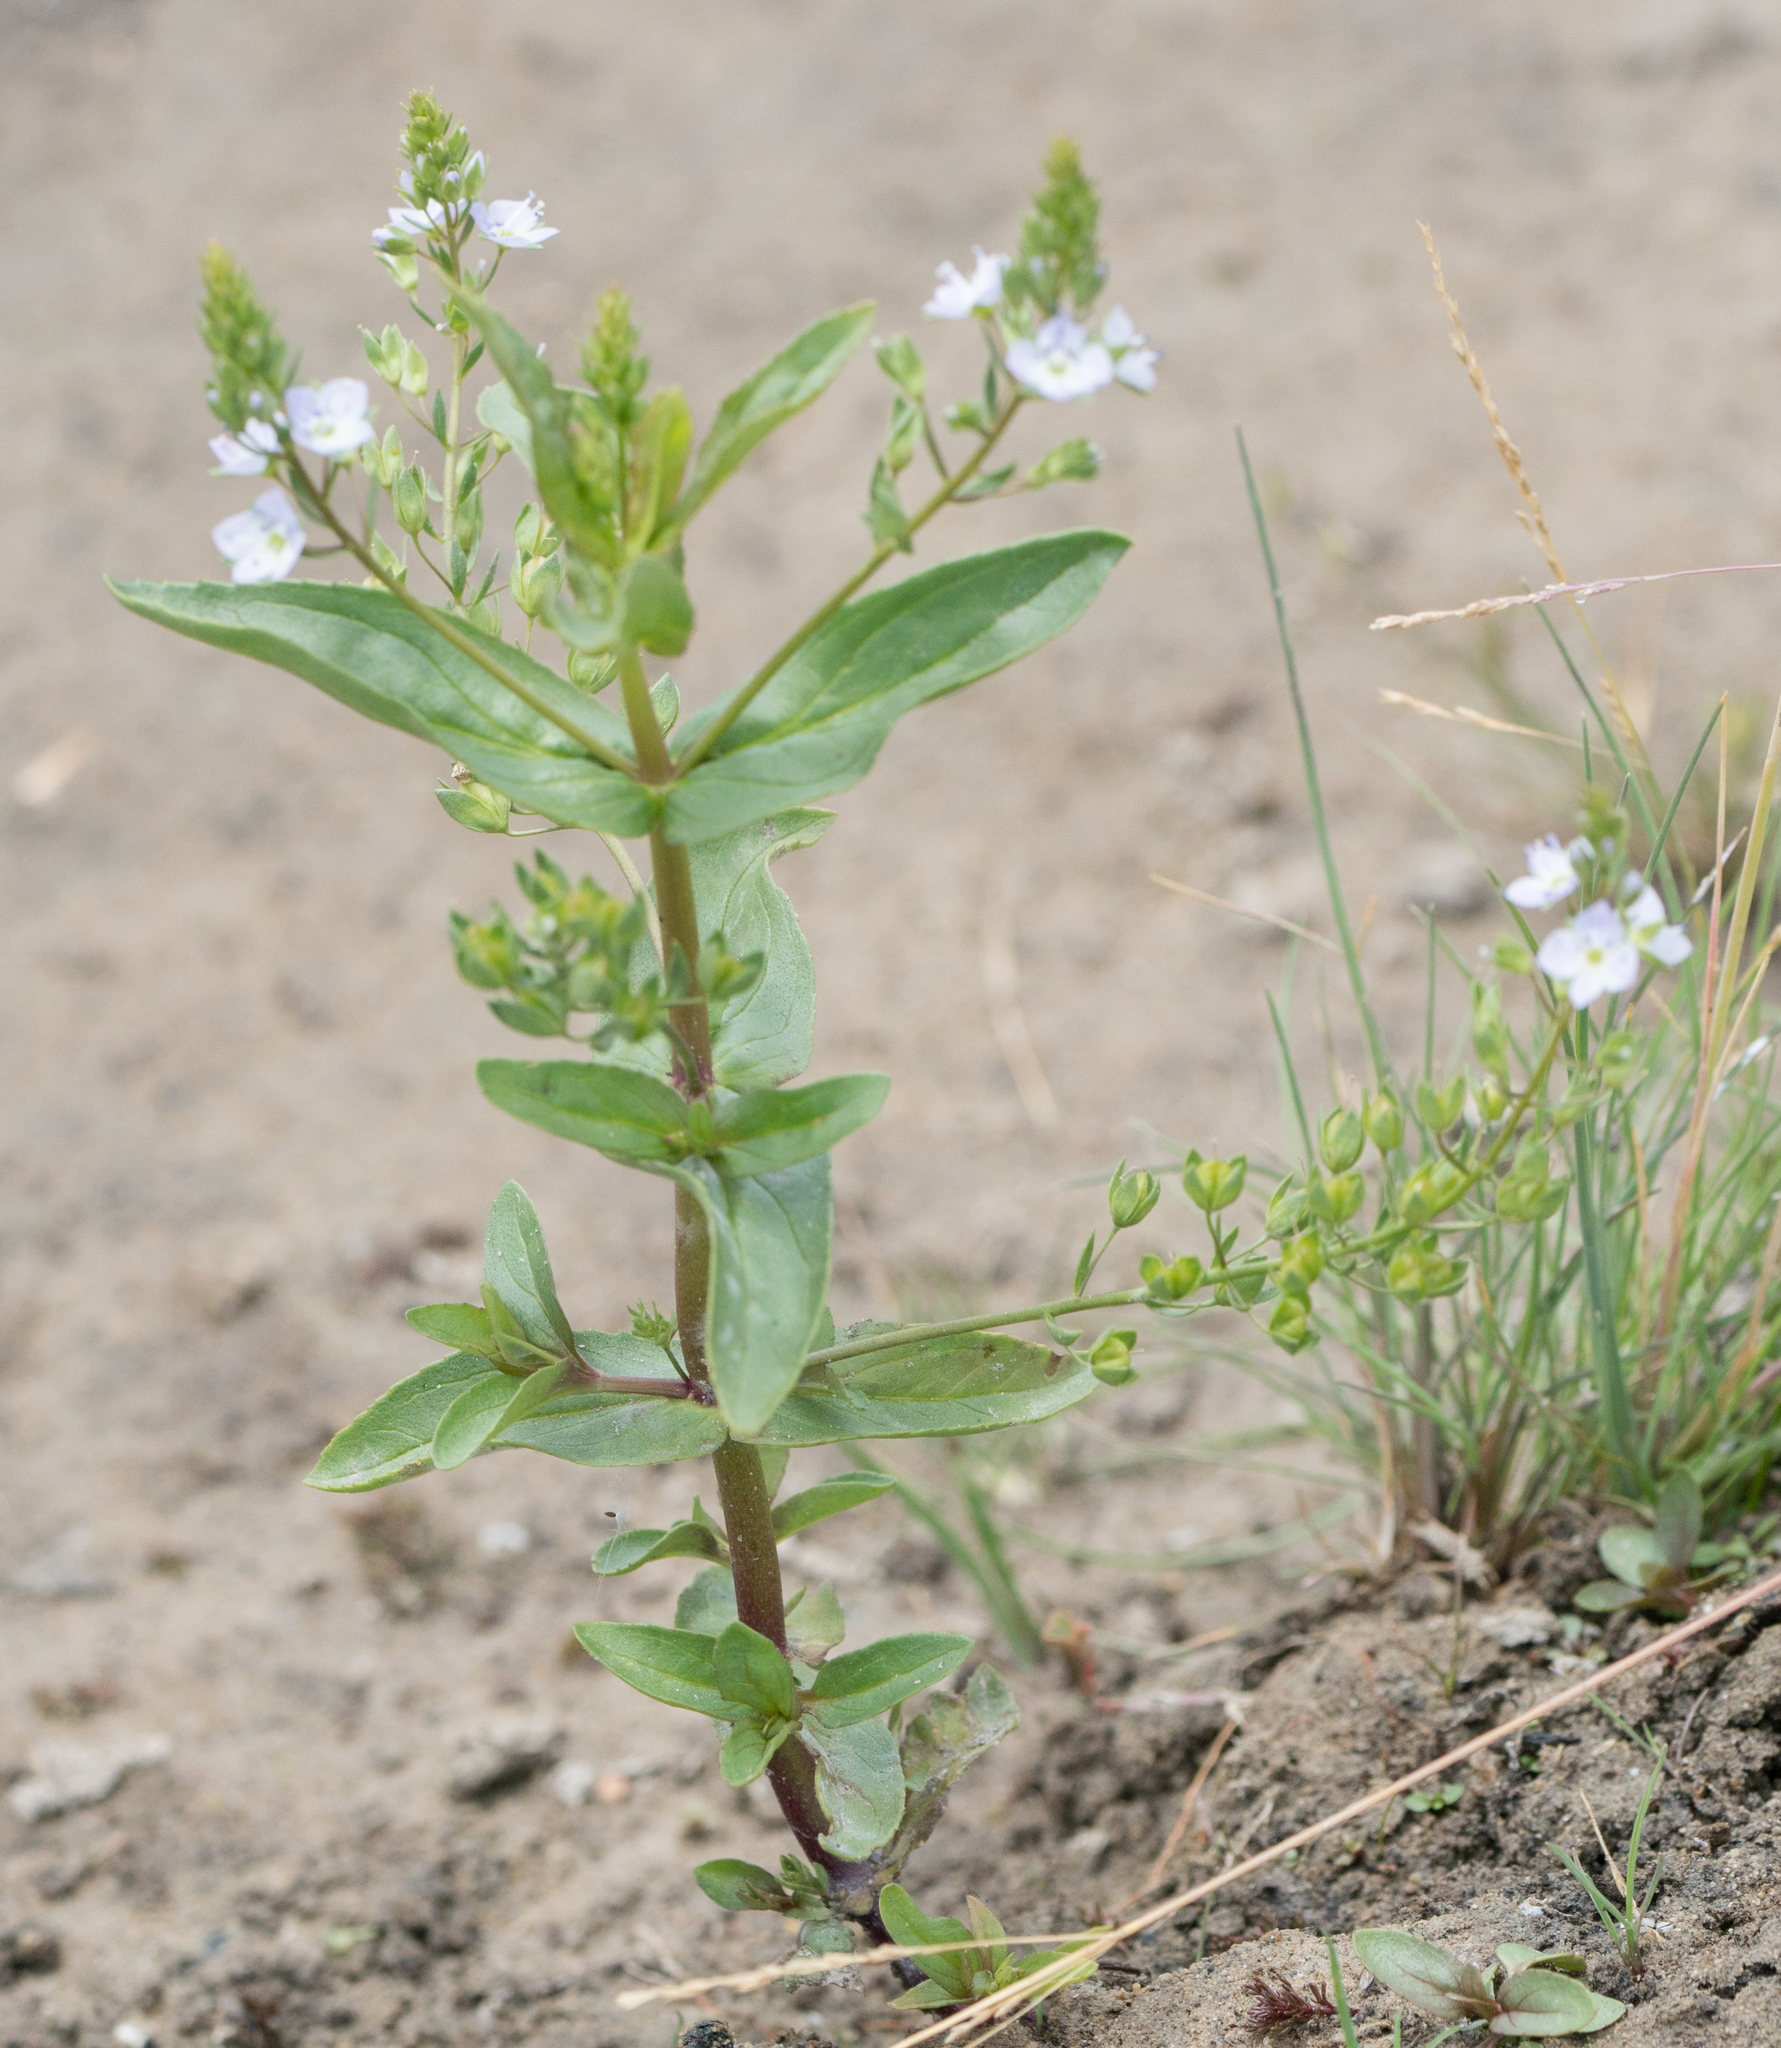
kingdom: Plantae
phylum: Tracheophyta
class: Magnoliopsida
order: Lamiales
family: Plantaginaceae
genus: Veronica
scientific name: Veronica anagallis-aquatica
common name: Water speedwell
